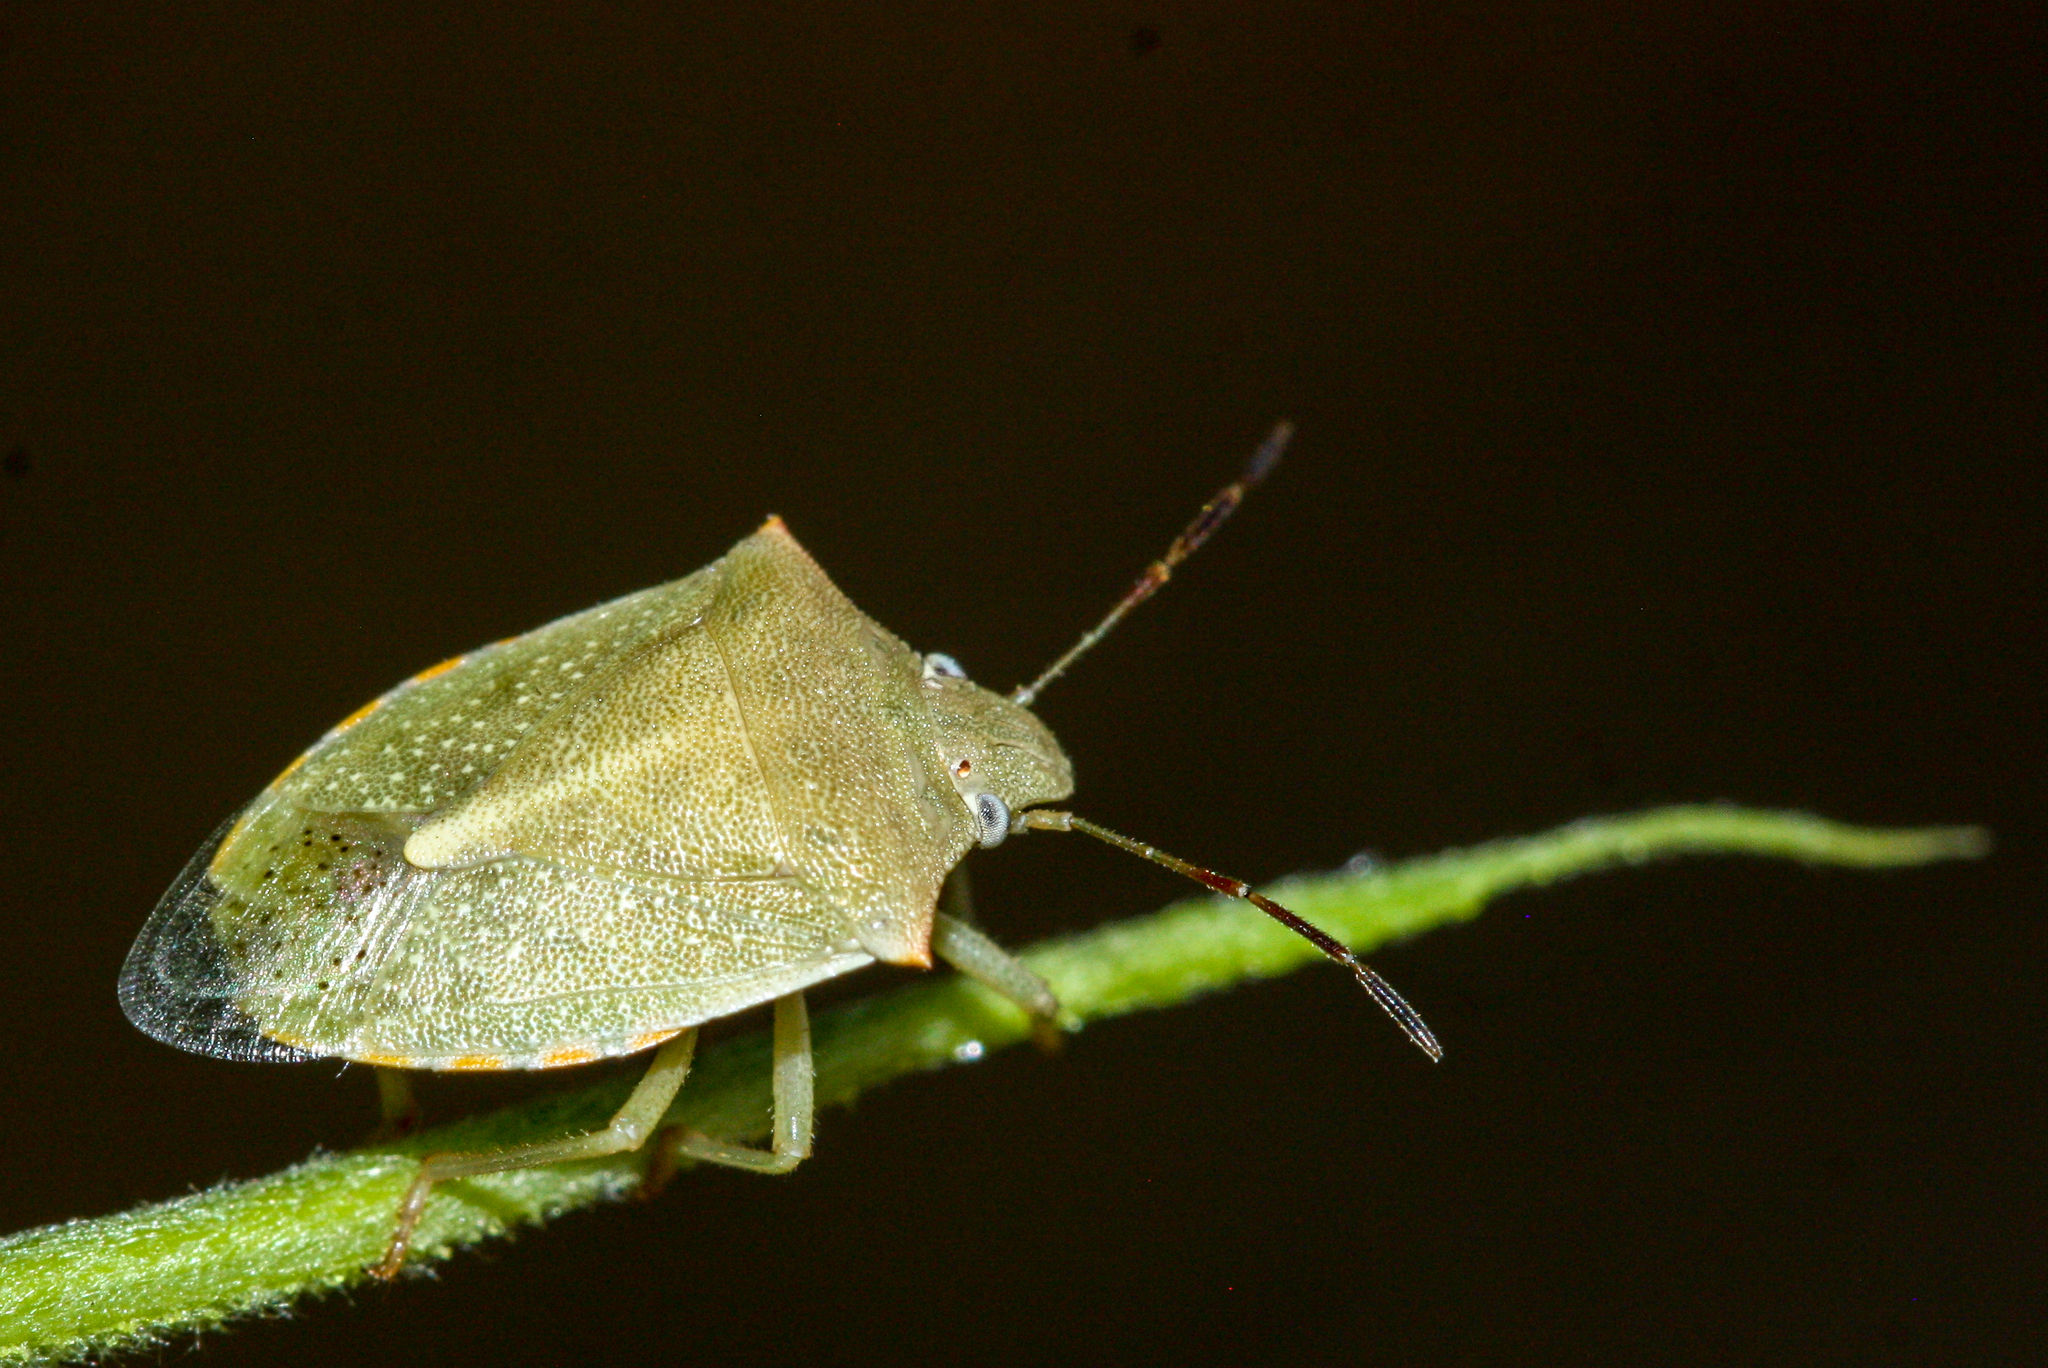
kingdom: Animalia
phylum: Arthropoda
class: Insecta
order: Hemiptera
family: Pentatomidae
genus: Thyanta
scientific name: Thyanta accerra
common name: Stink bug
